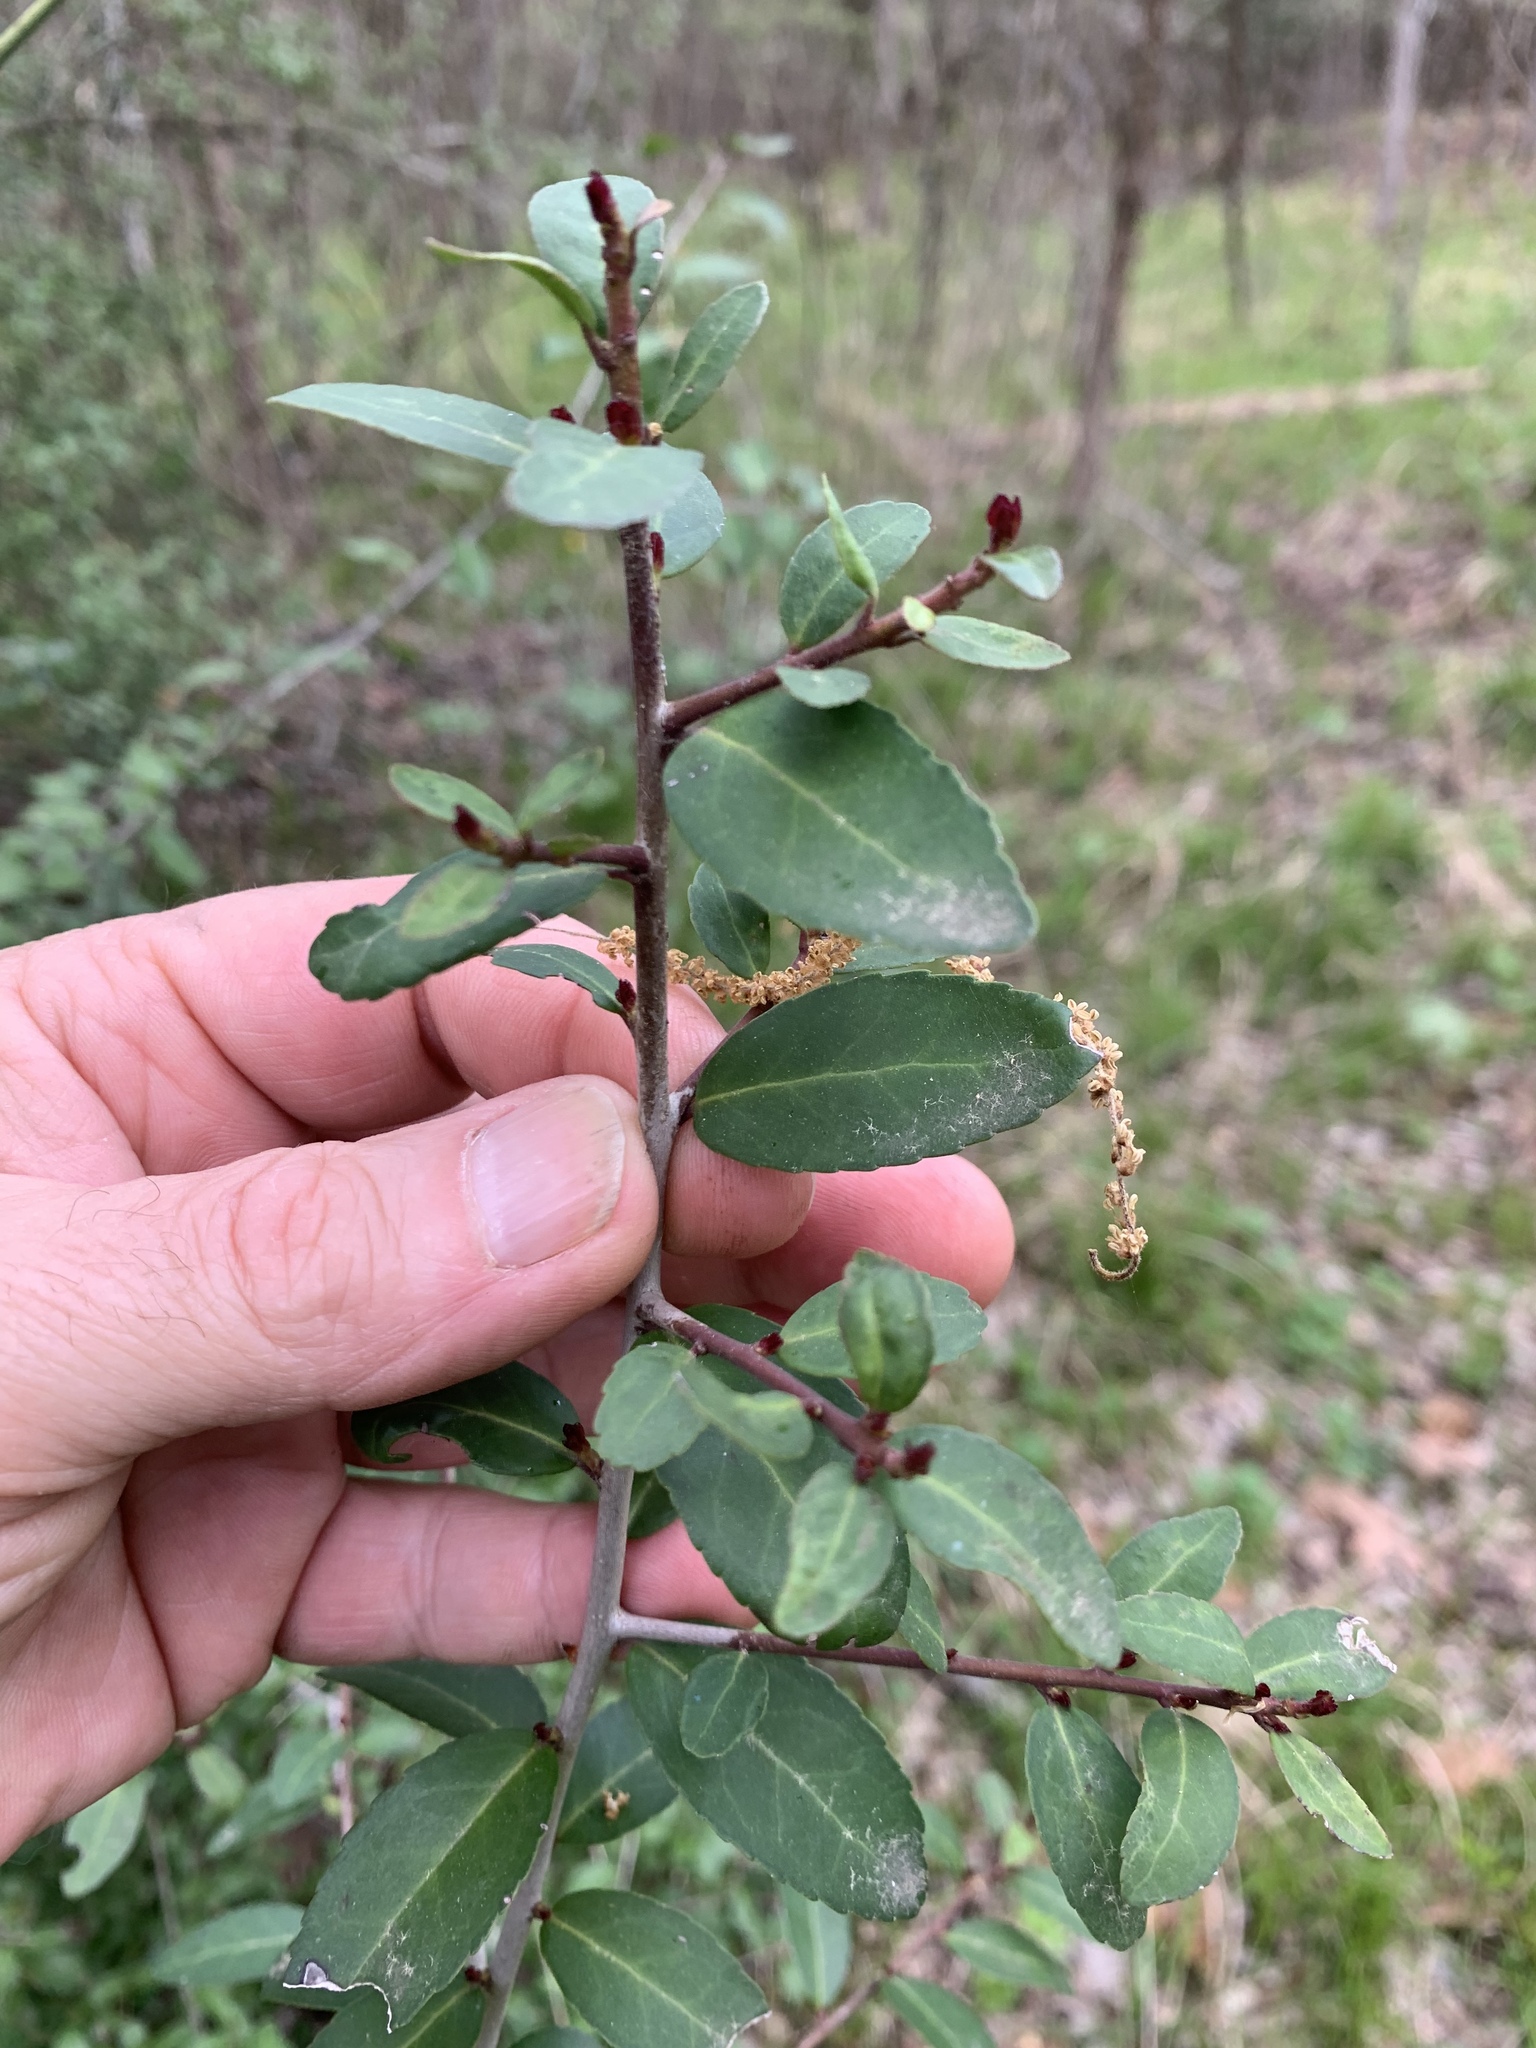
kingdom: Plantae
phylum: Tracheophyta
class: Magnoliopsida
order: Aquifoliales
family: Aquifoliaceae
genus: Ilex
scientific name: Ilex vomitoria
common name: Yaupon holly
